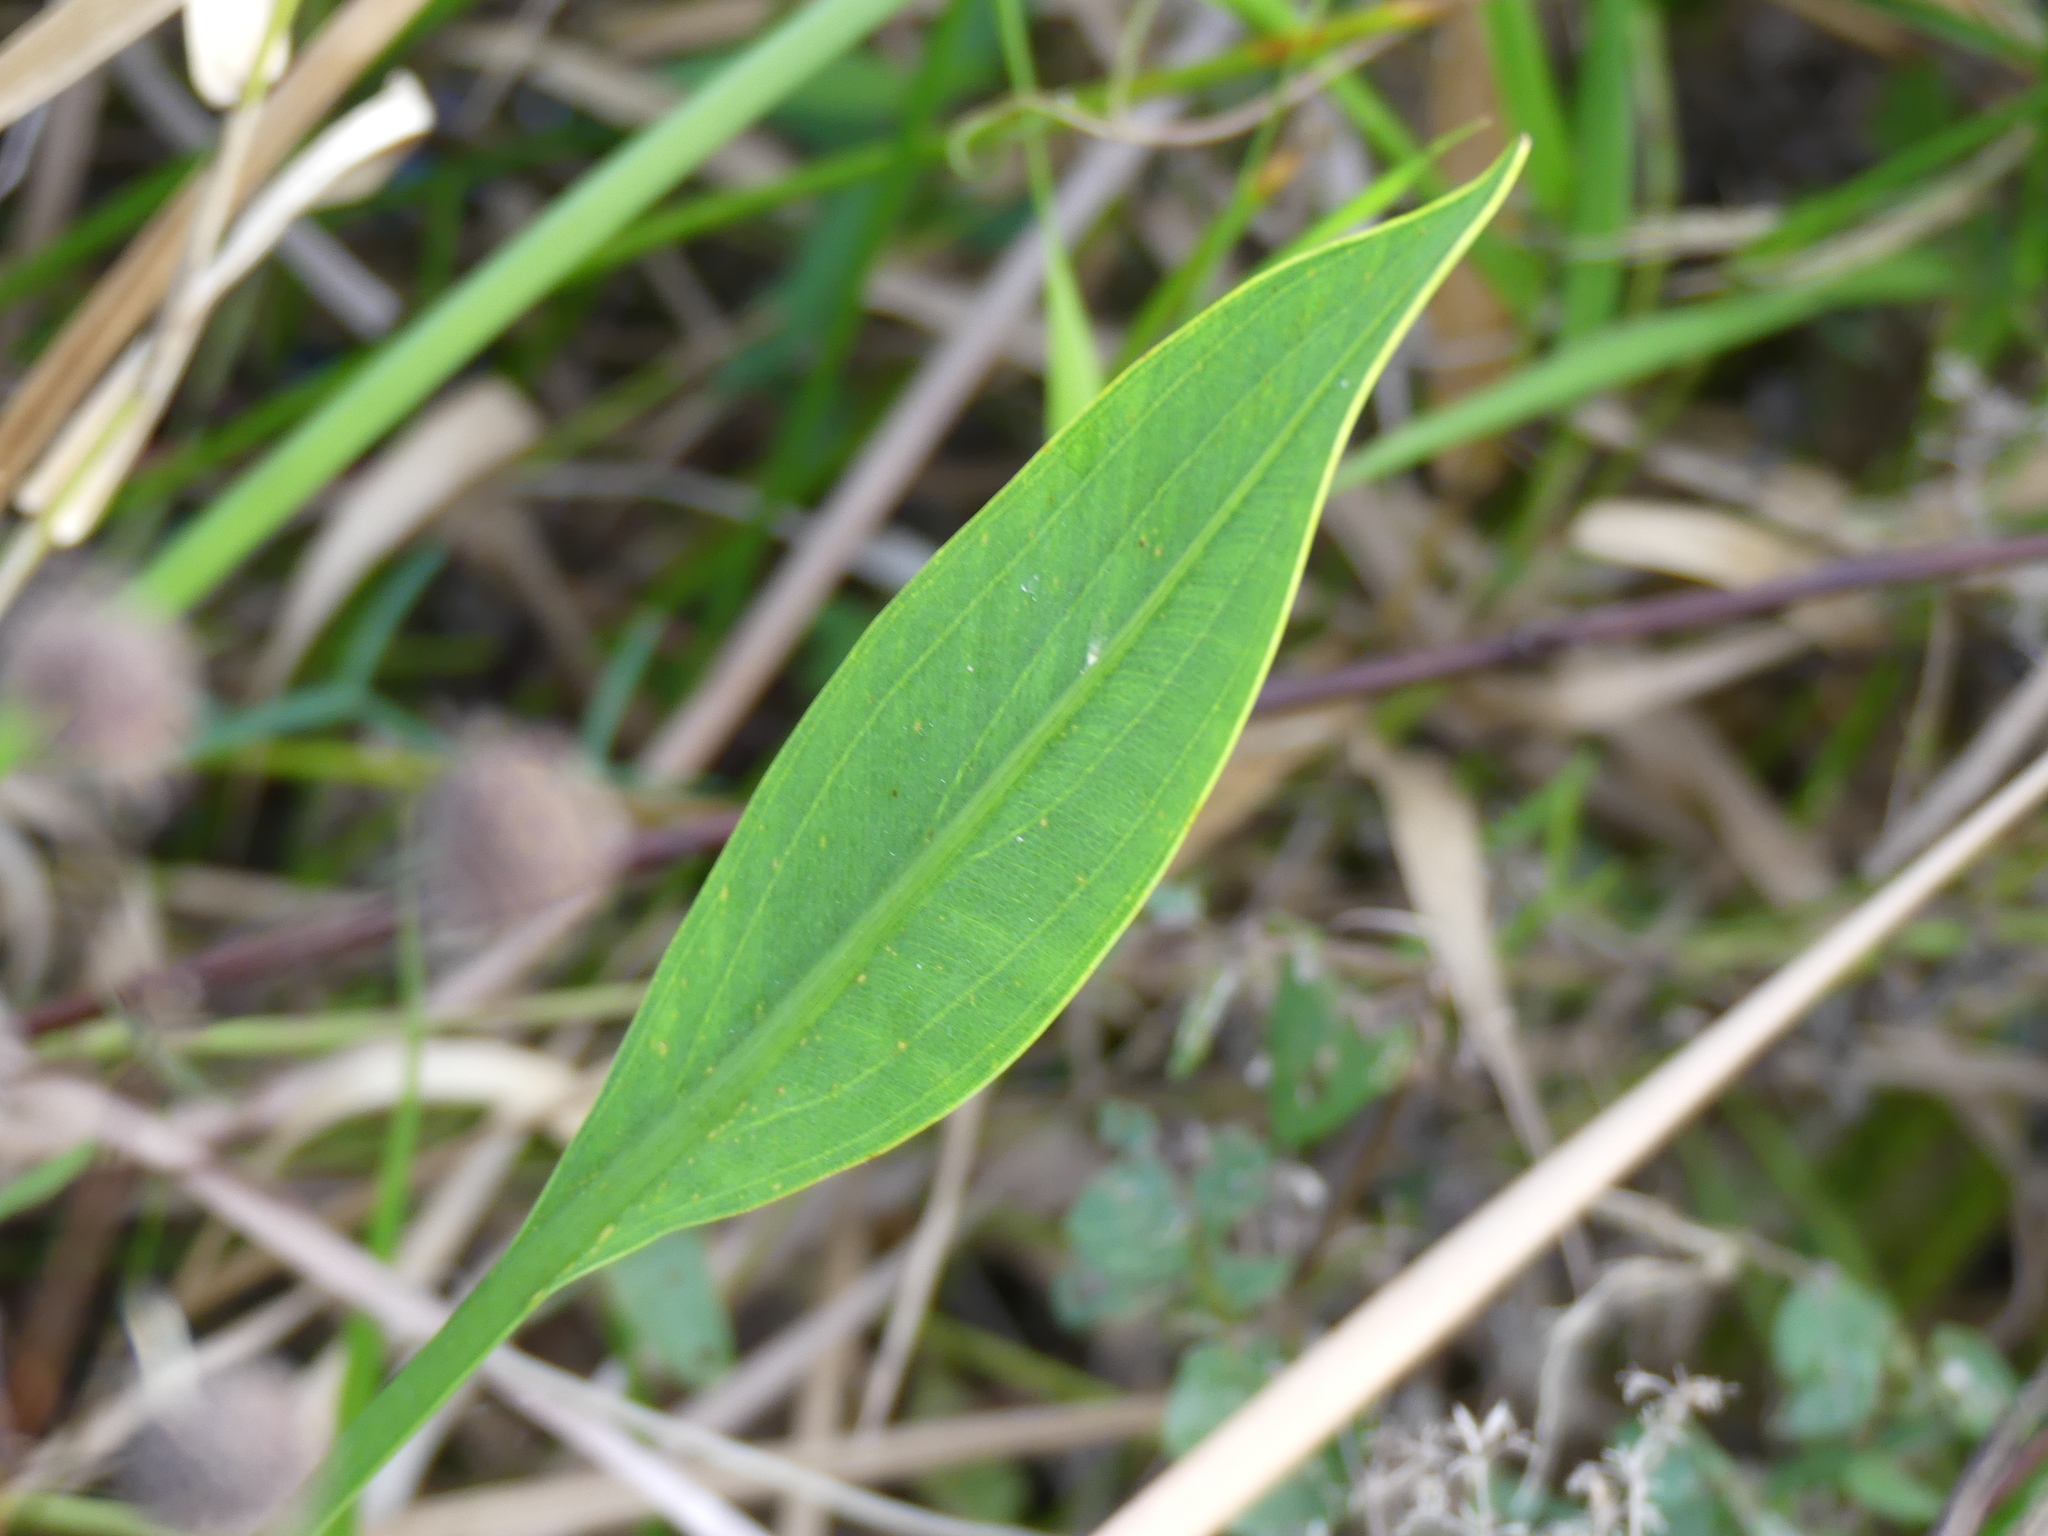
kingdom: Plantae
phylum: Tracheophyta
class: Liliopsida
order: Alismatales
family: Alismataceae
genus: Sagittaria
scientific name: Sagittaria lancifolia
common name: Lance-leaf arrowhead
